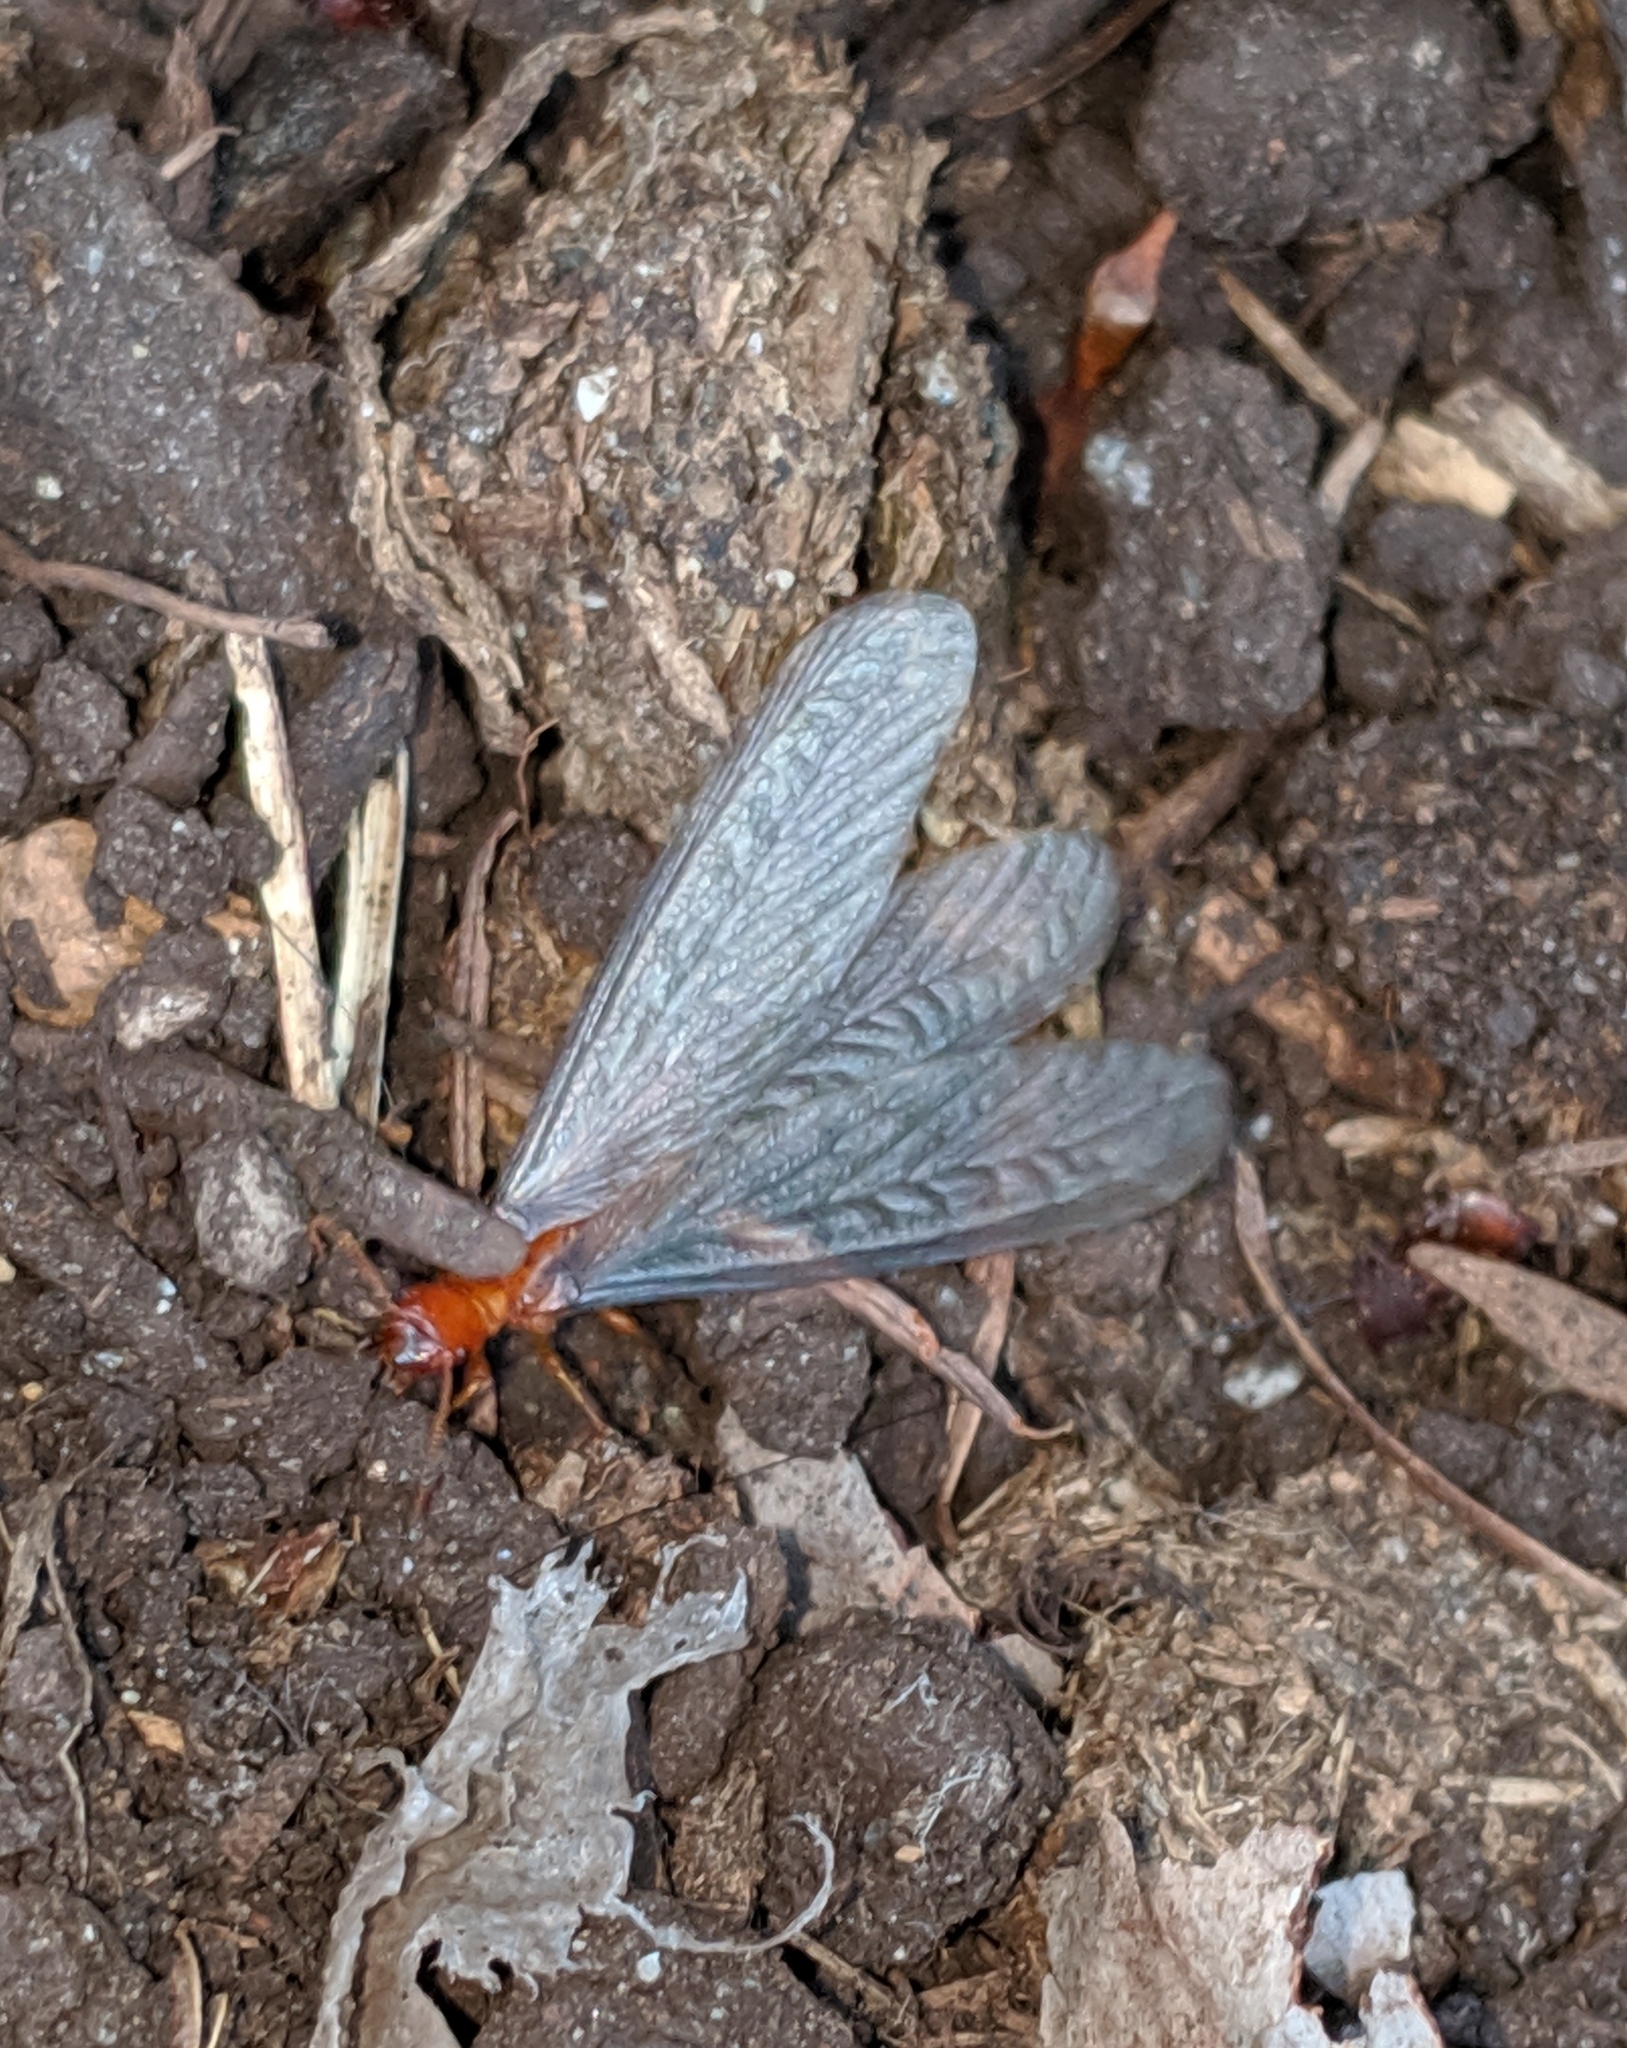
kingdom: Animalia
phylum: Arthropoda
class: Insecta
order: Blattodea
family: Archotermopsidae
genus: Zootermopsis
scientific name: Zootermopsis angusticollis
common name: Rottenwood termite
